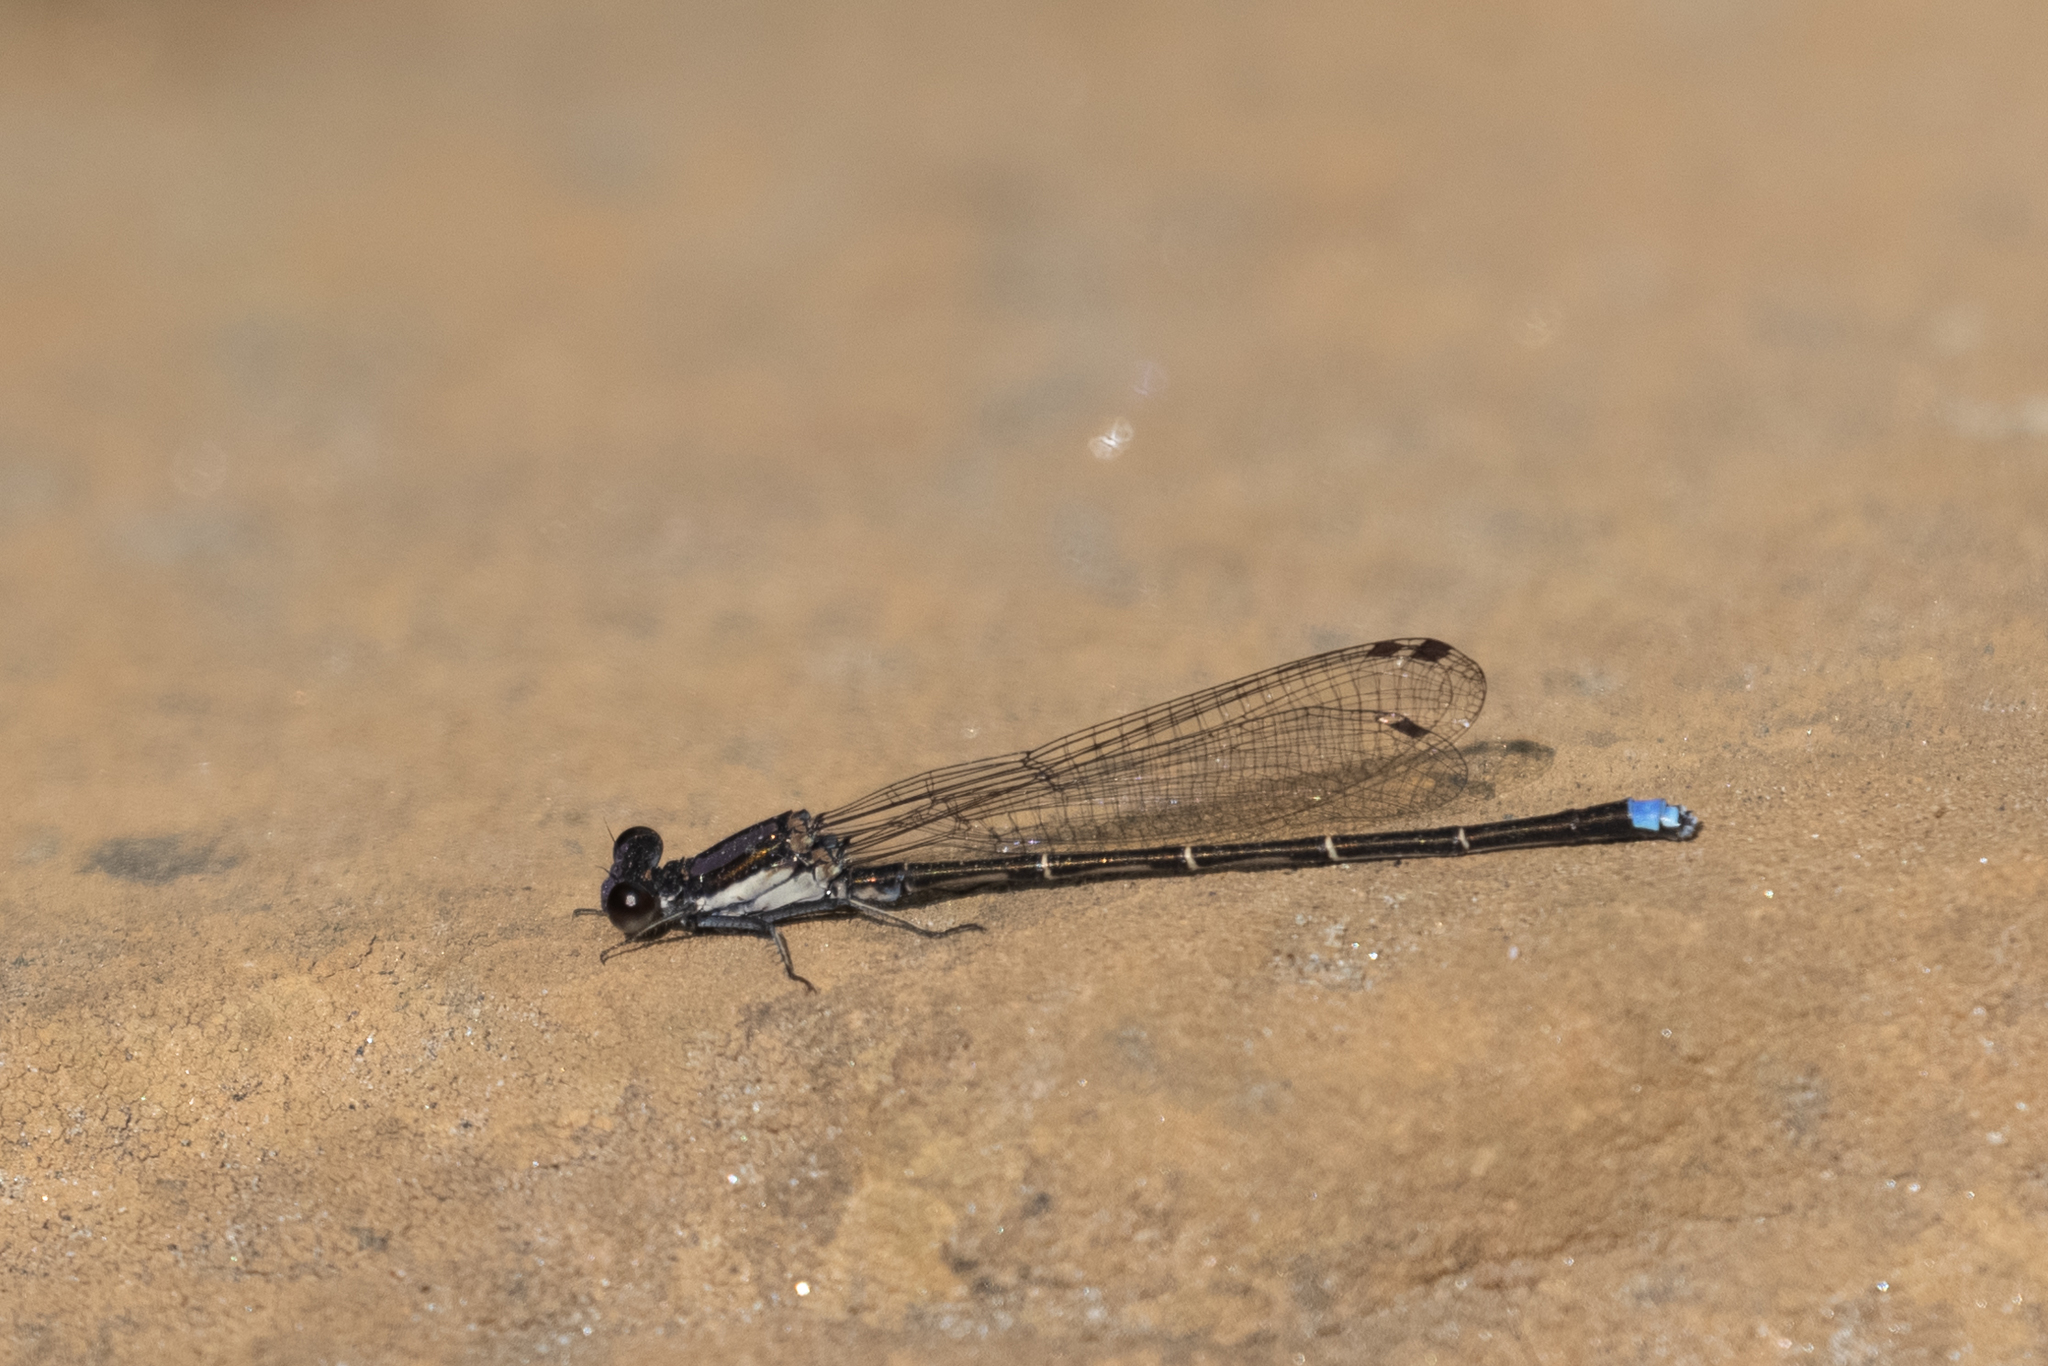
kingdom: Animalia
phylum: Arthropoda
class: Insecta
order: Odonata
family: Coenagrionidae
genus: Argia
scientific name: Argia tibialis
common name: Blue-tipped dancer
